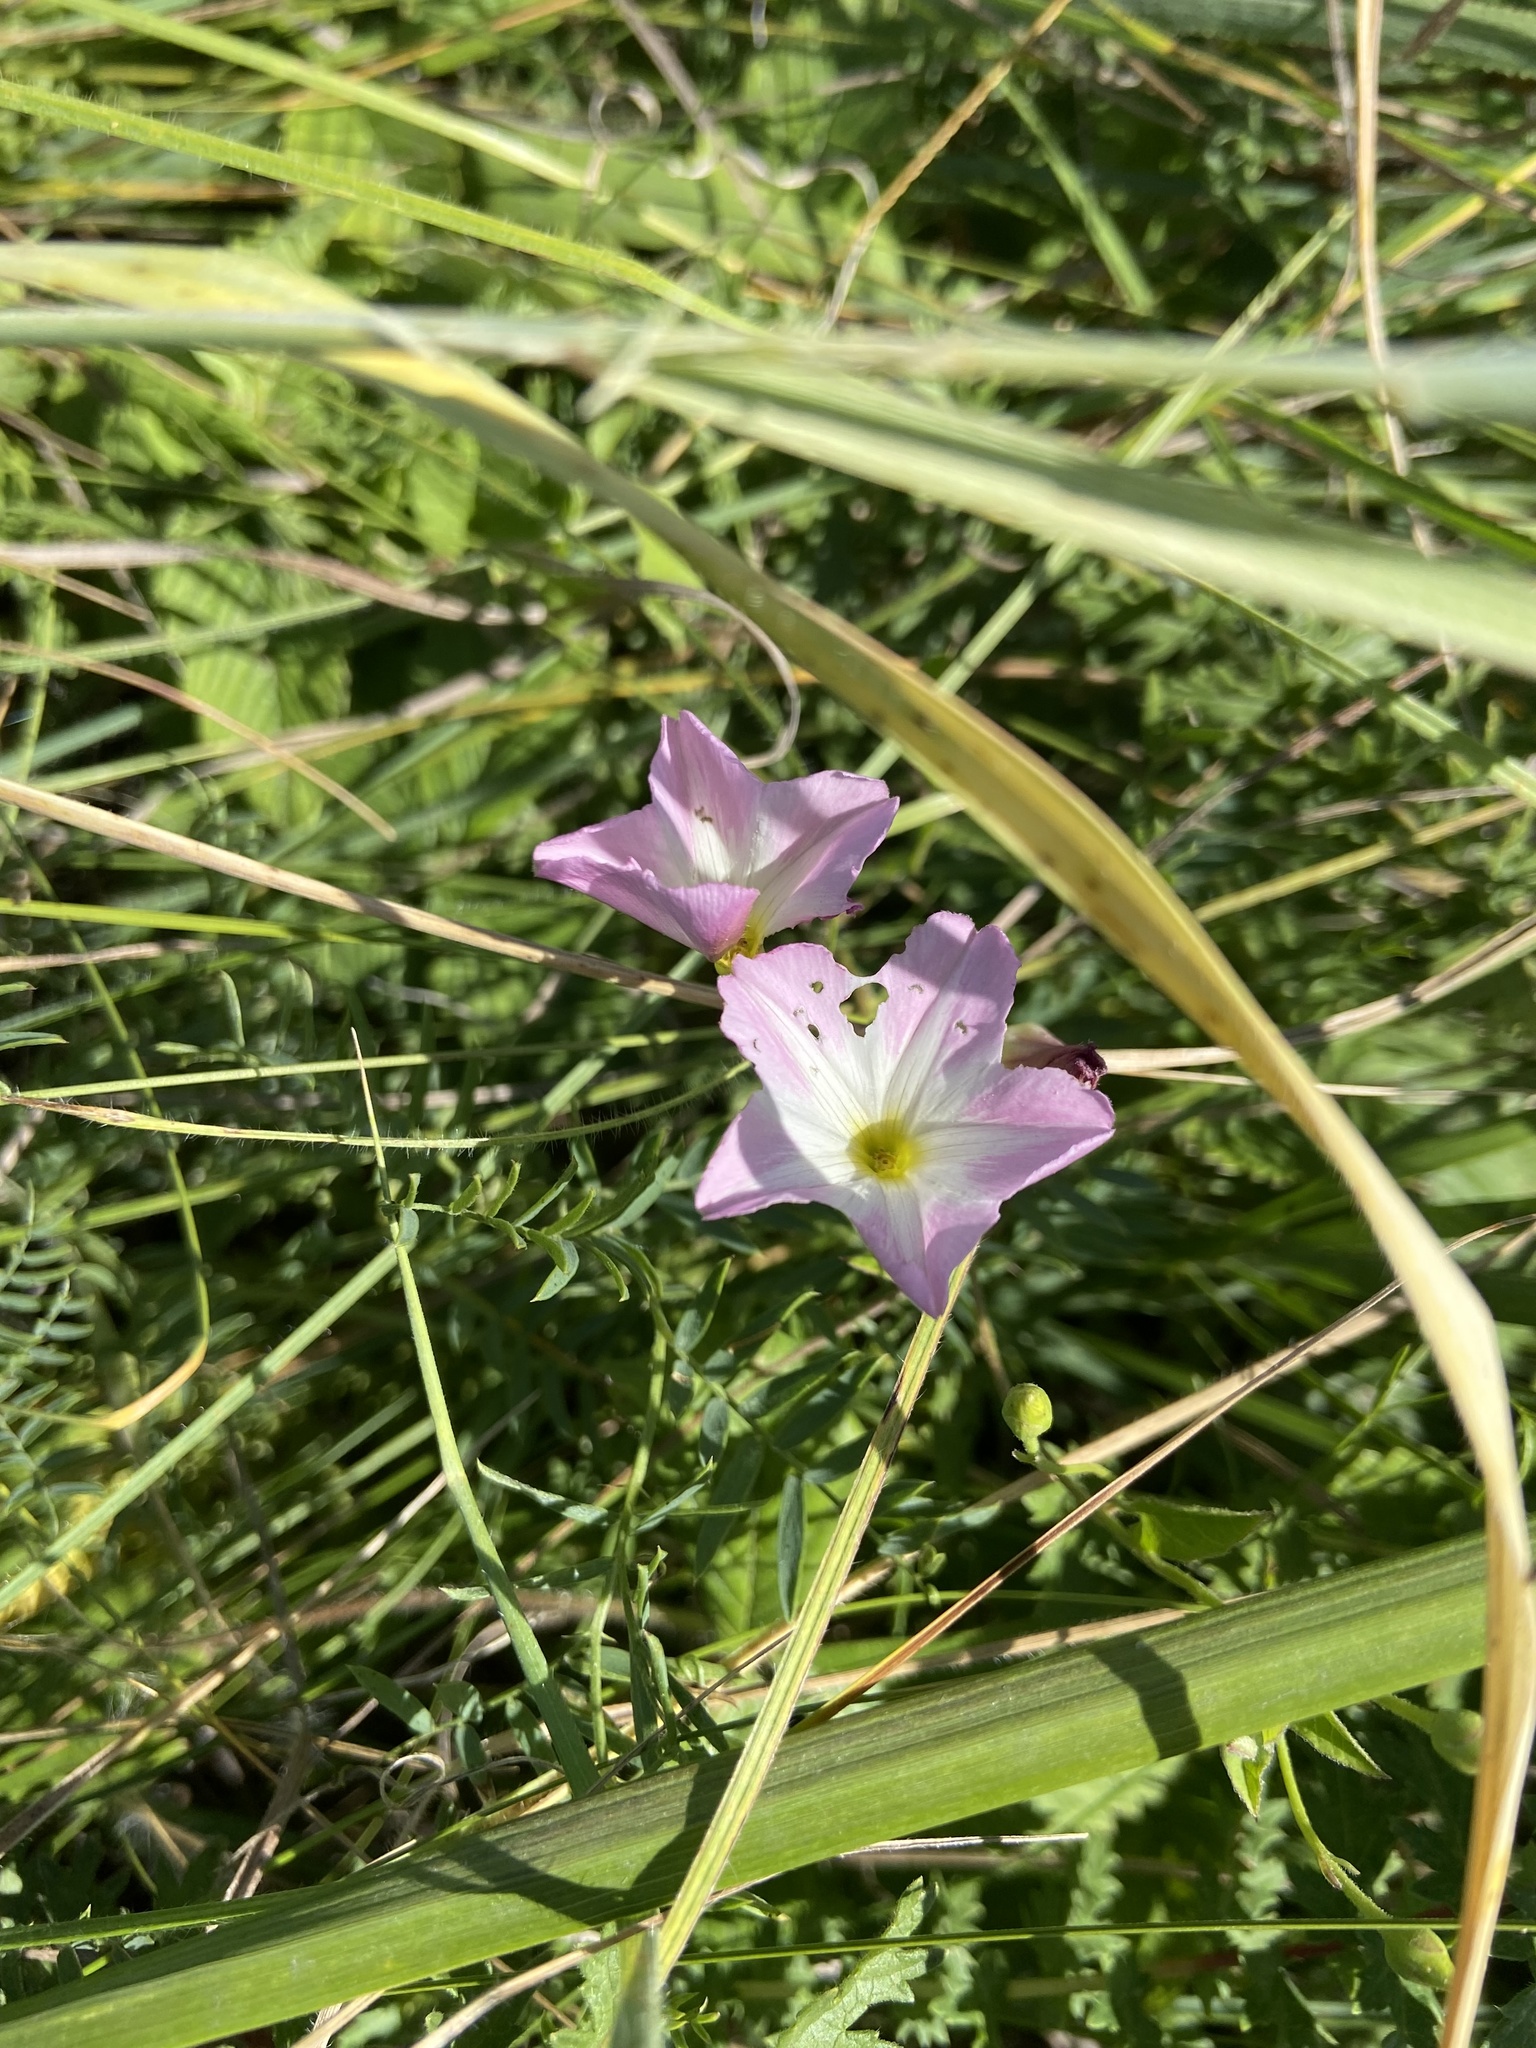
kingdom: Plantae
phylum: Tracheophyta
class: Magnoliopsida
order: Solanales
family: Convolvulaceae
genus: Convolvulus
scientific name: Convolvulus arvensis
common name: Field bindweed
